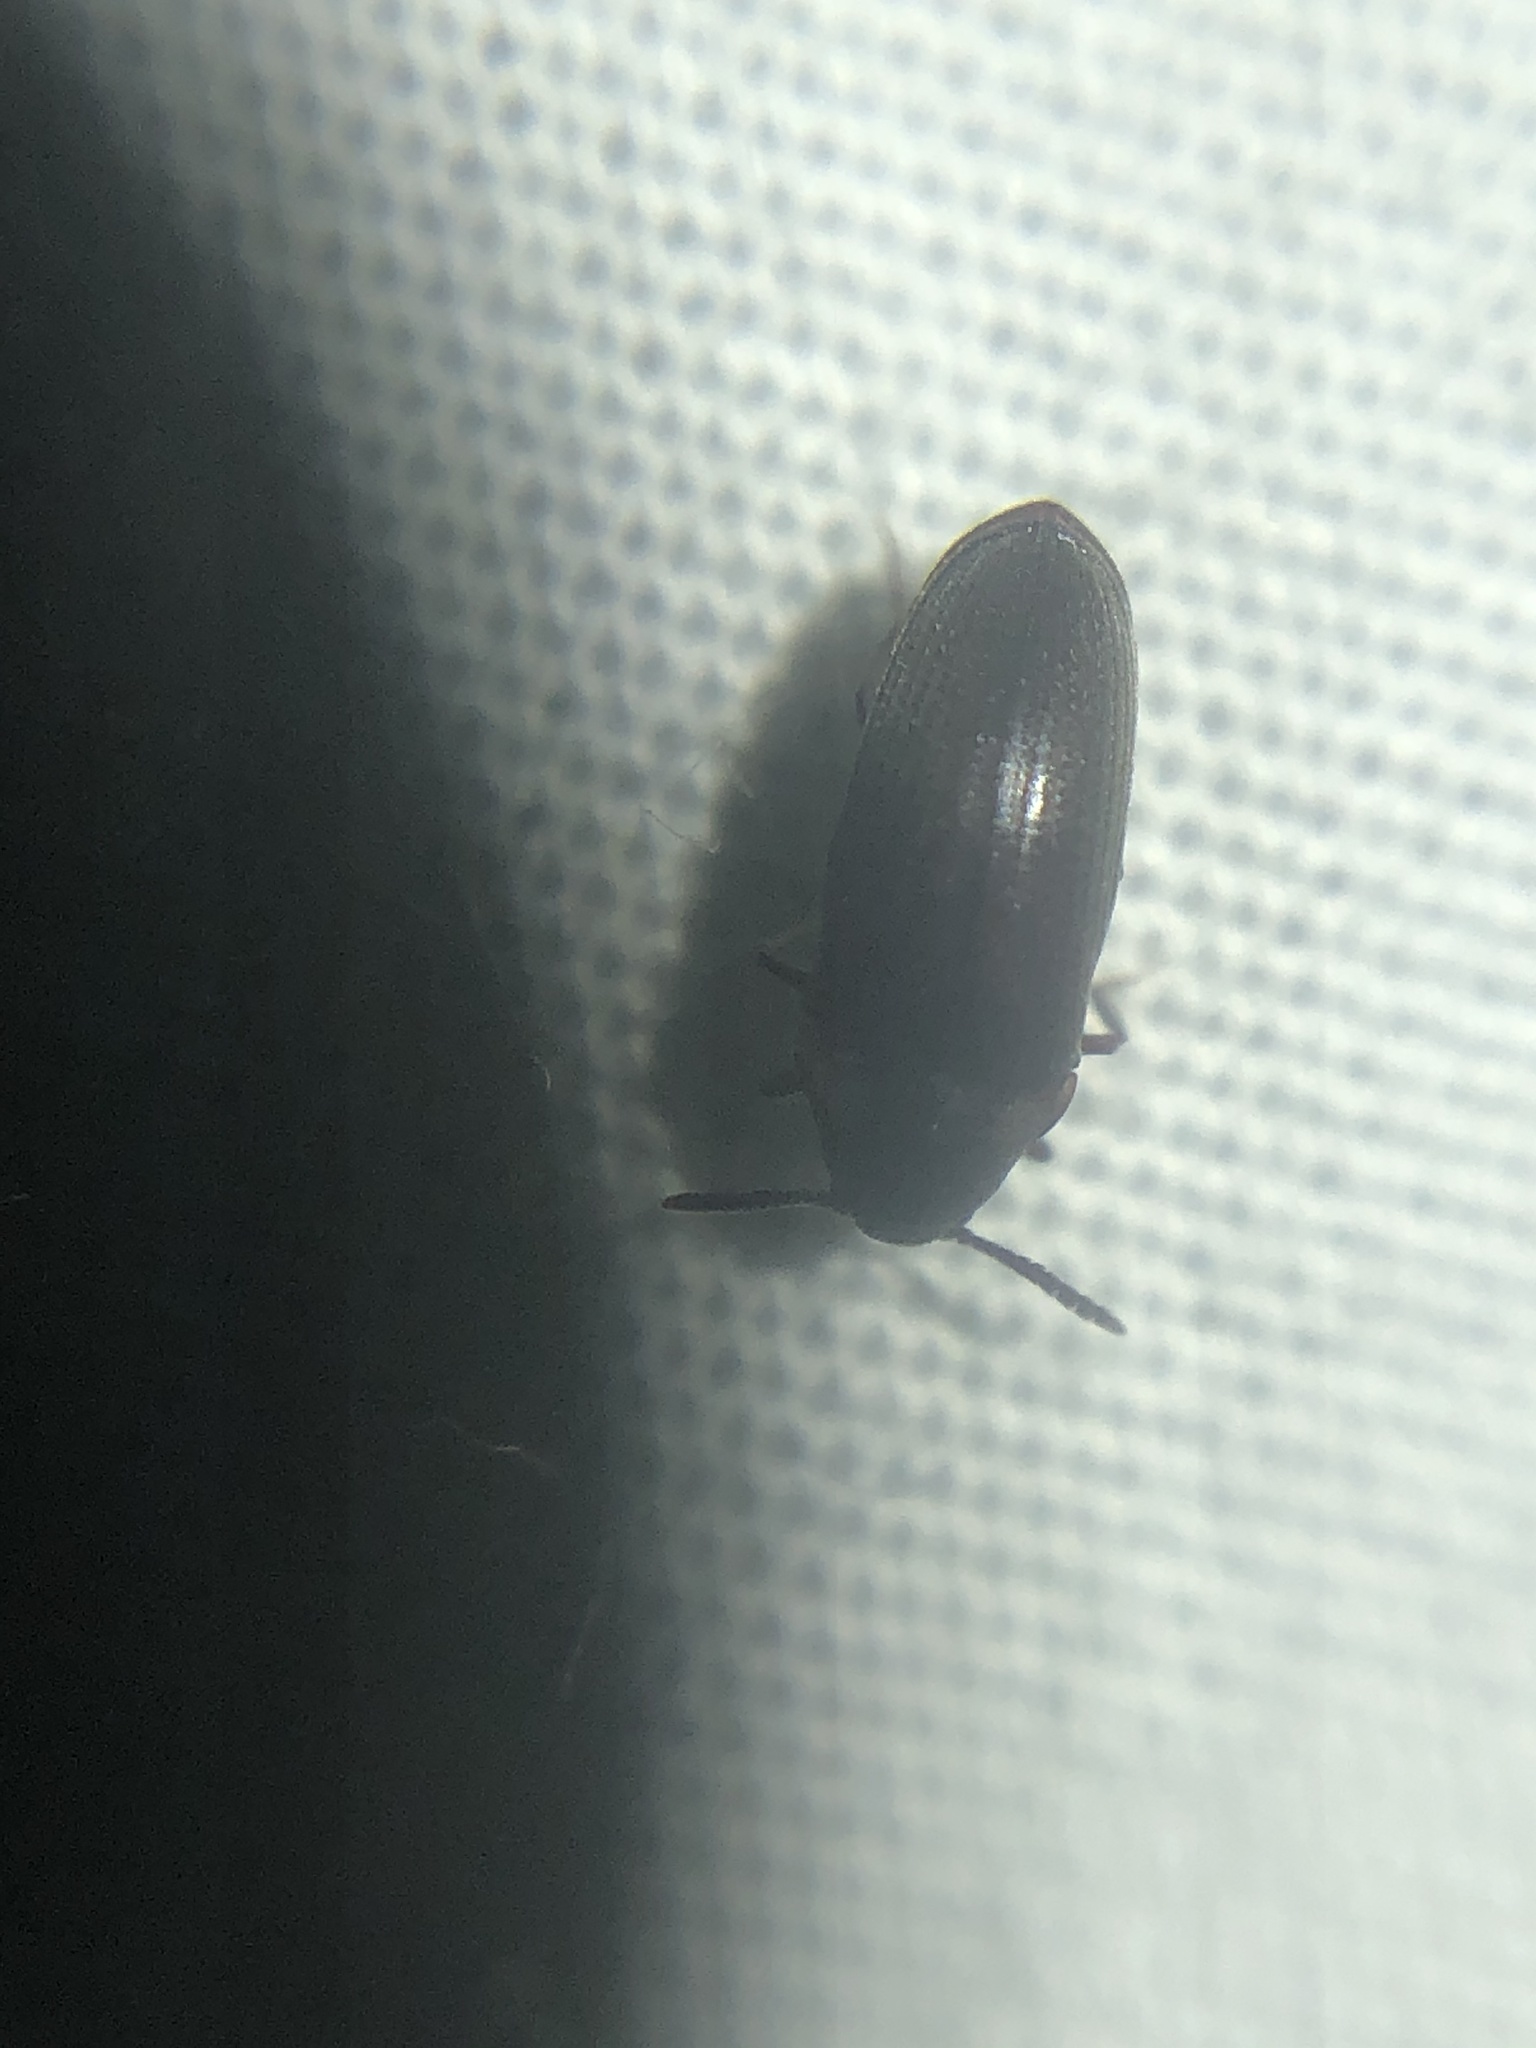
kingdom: Animalia
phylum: Arthropoda
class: Insecta
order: Coleoptera
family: Throscidae
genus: Pactopus
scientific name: Pactopus hornii
